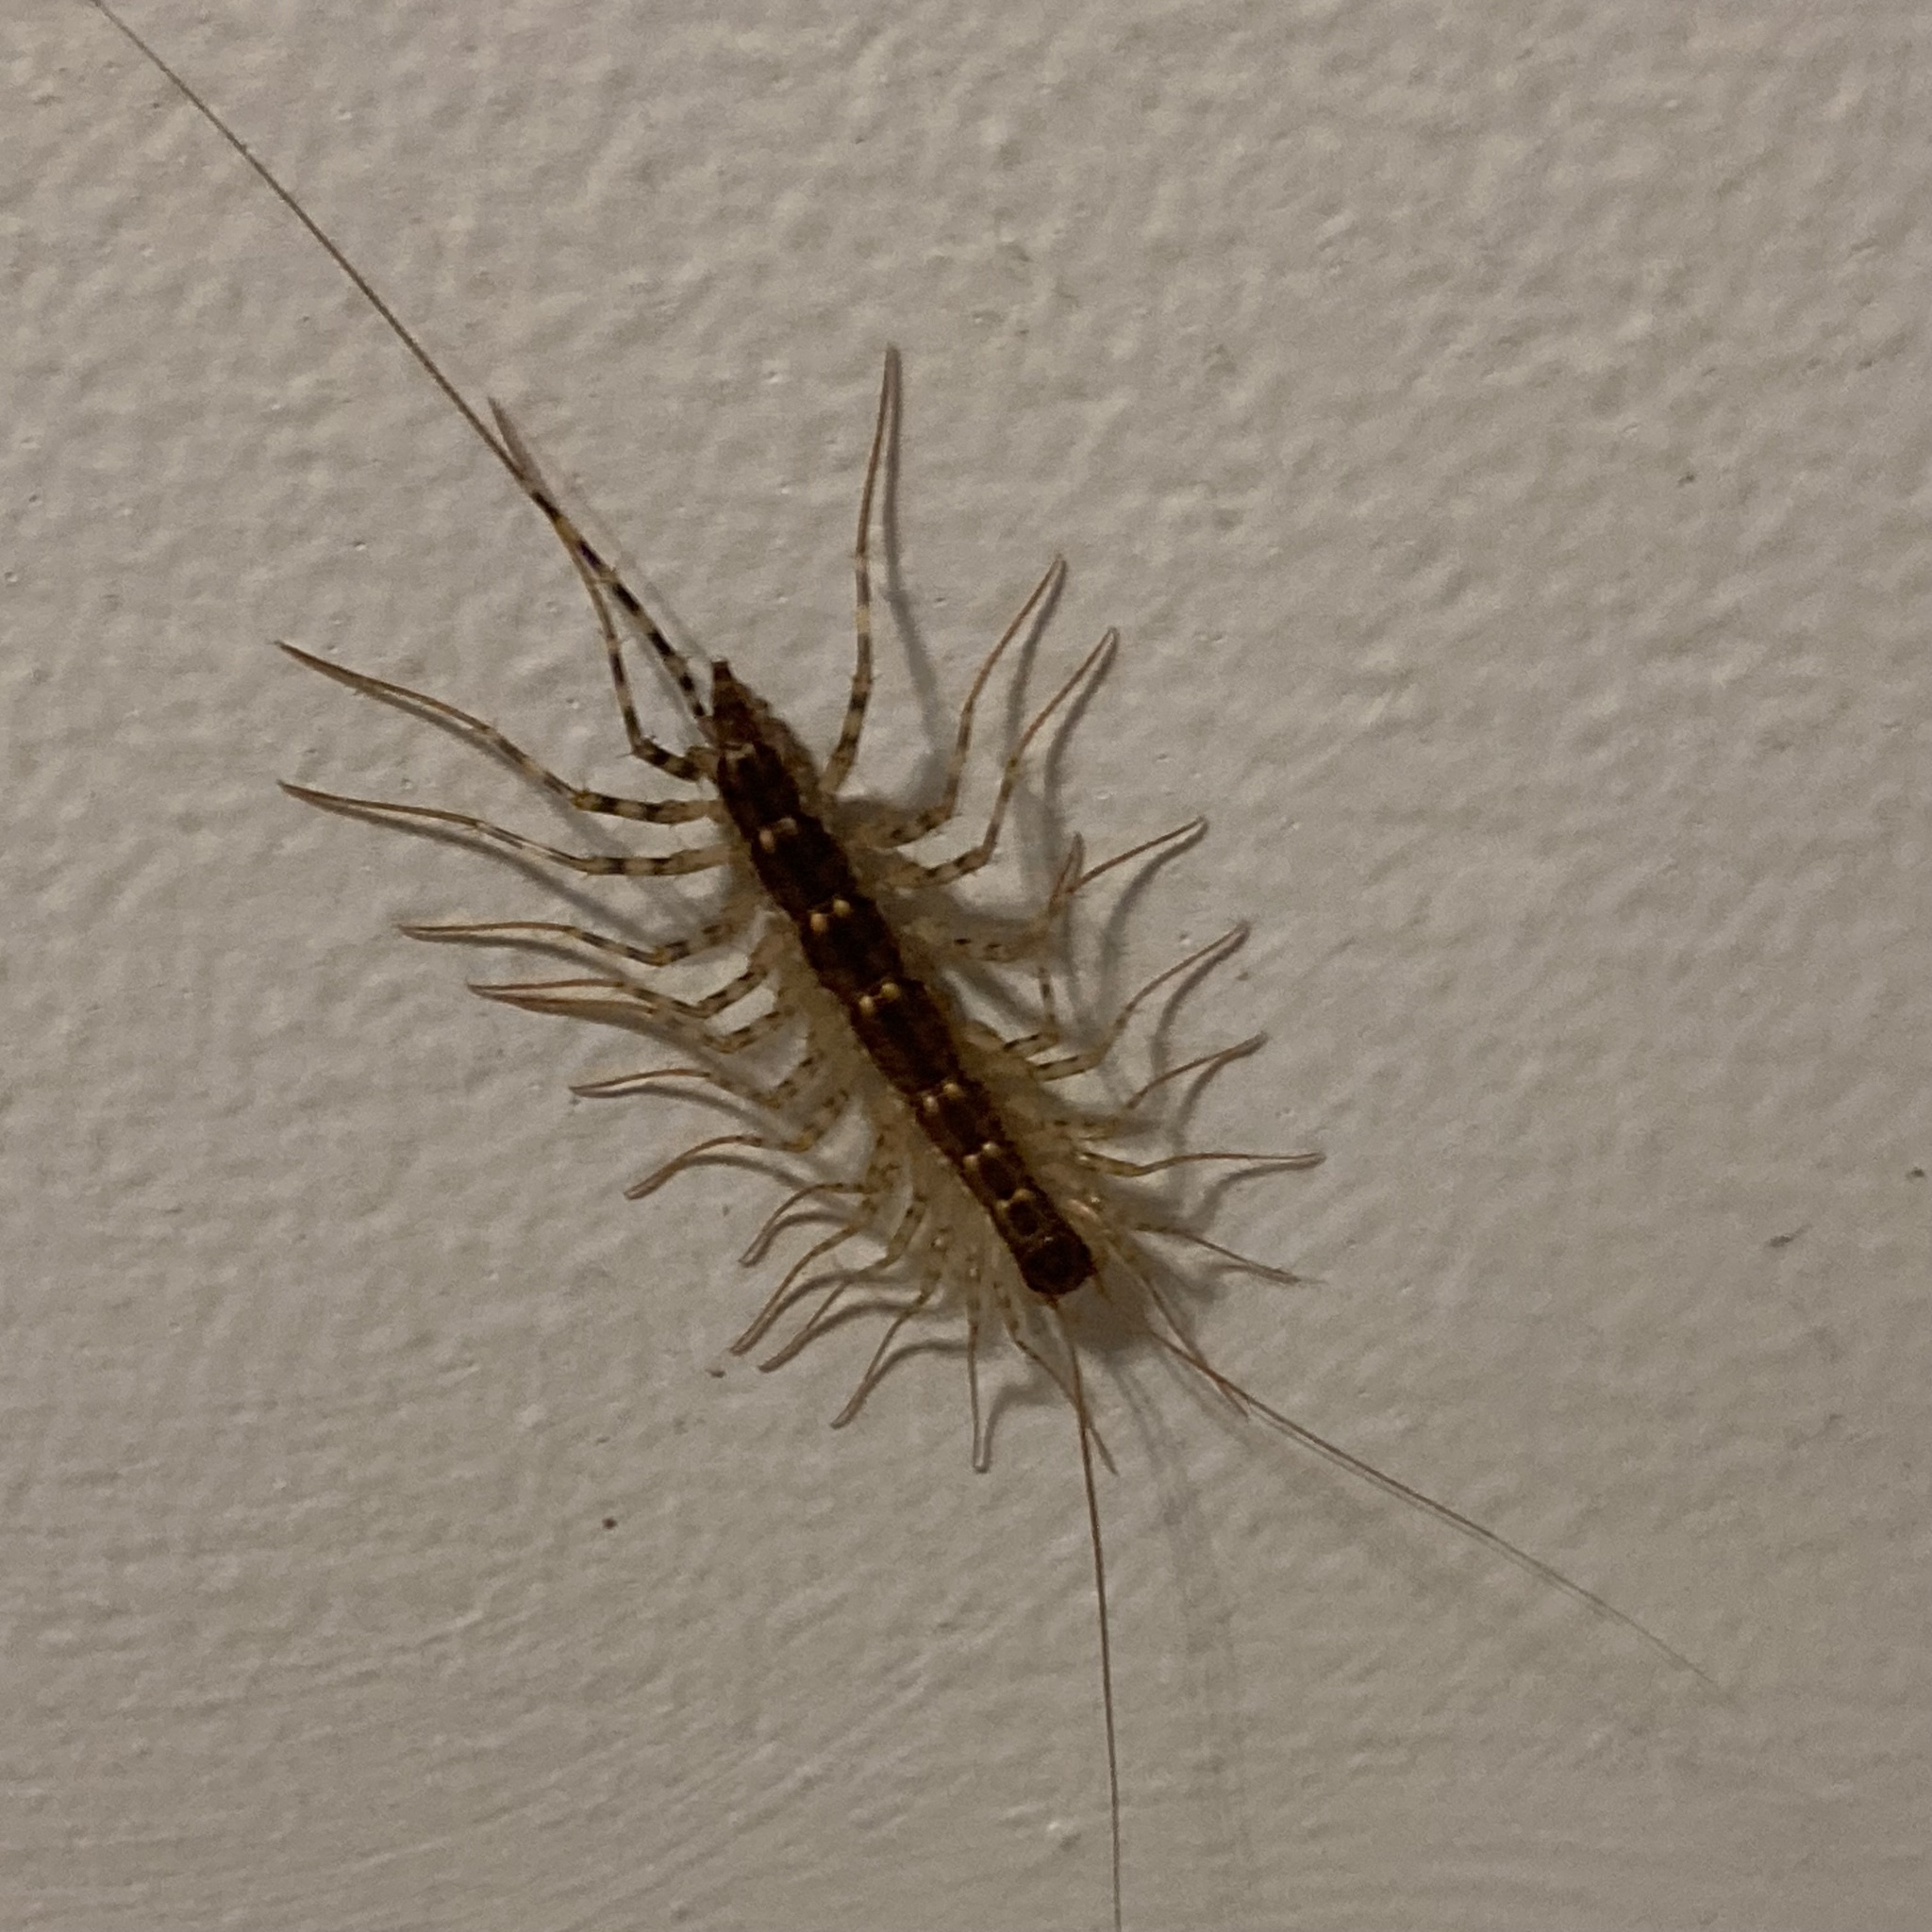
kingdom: Animalia
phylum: Arthropoda
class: Chilopoda
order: Scutigeromorpha
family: Scutigeridae
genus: Scutigera
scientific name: Scutigera coleoptrata
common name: House centipede
